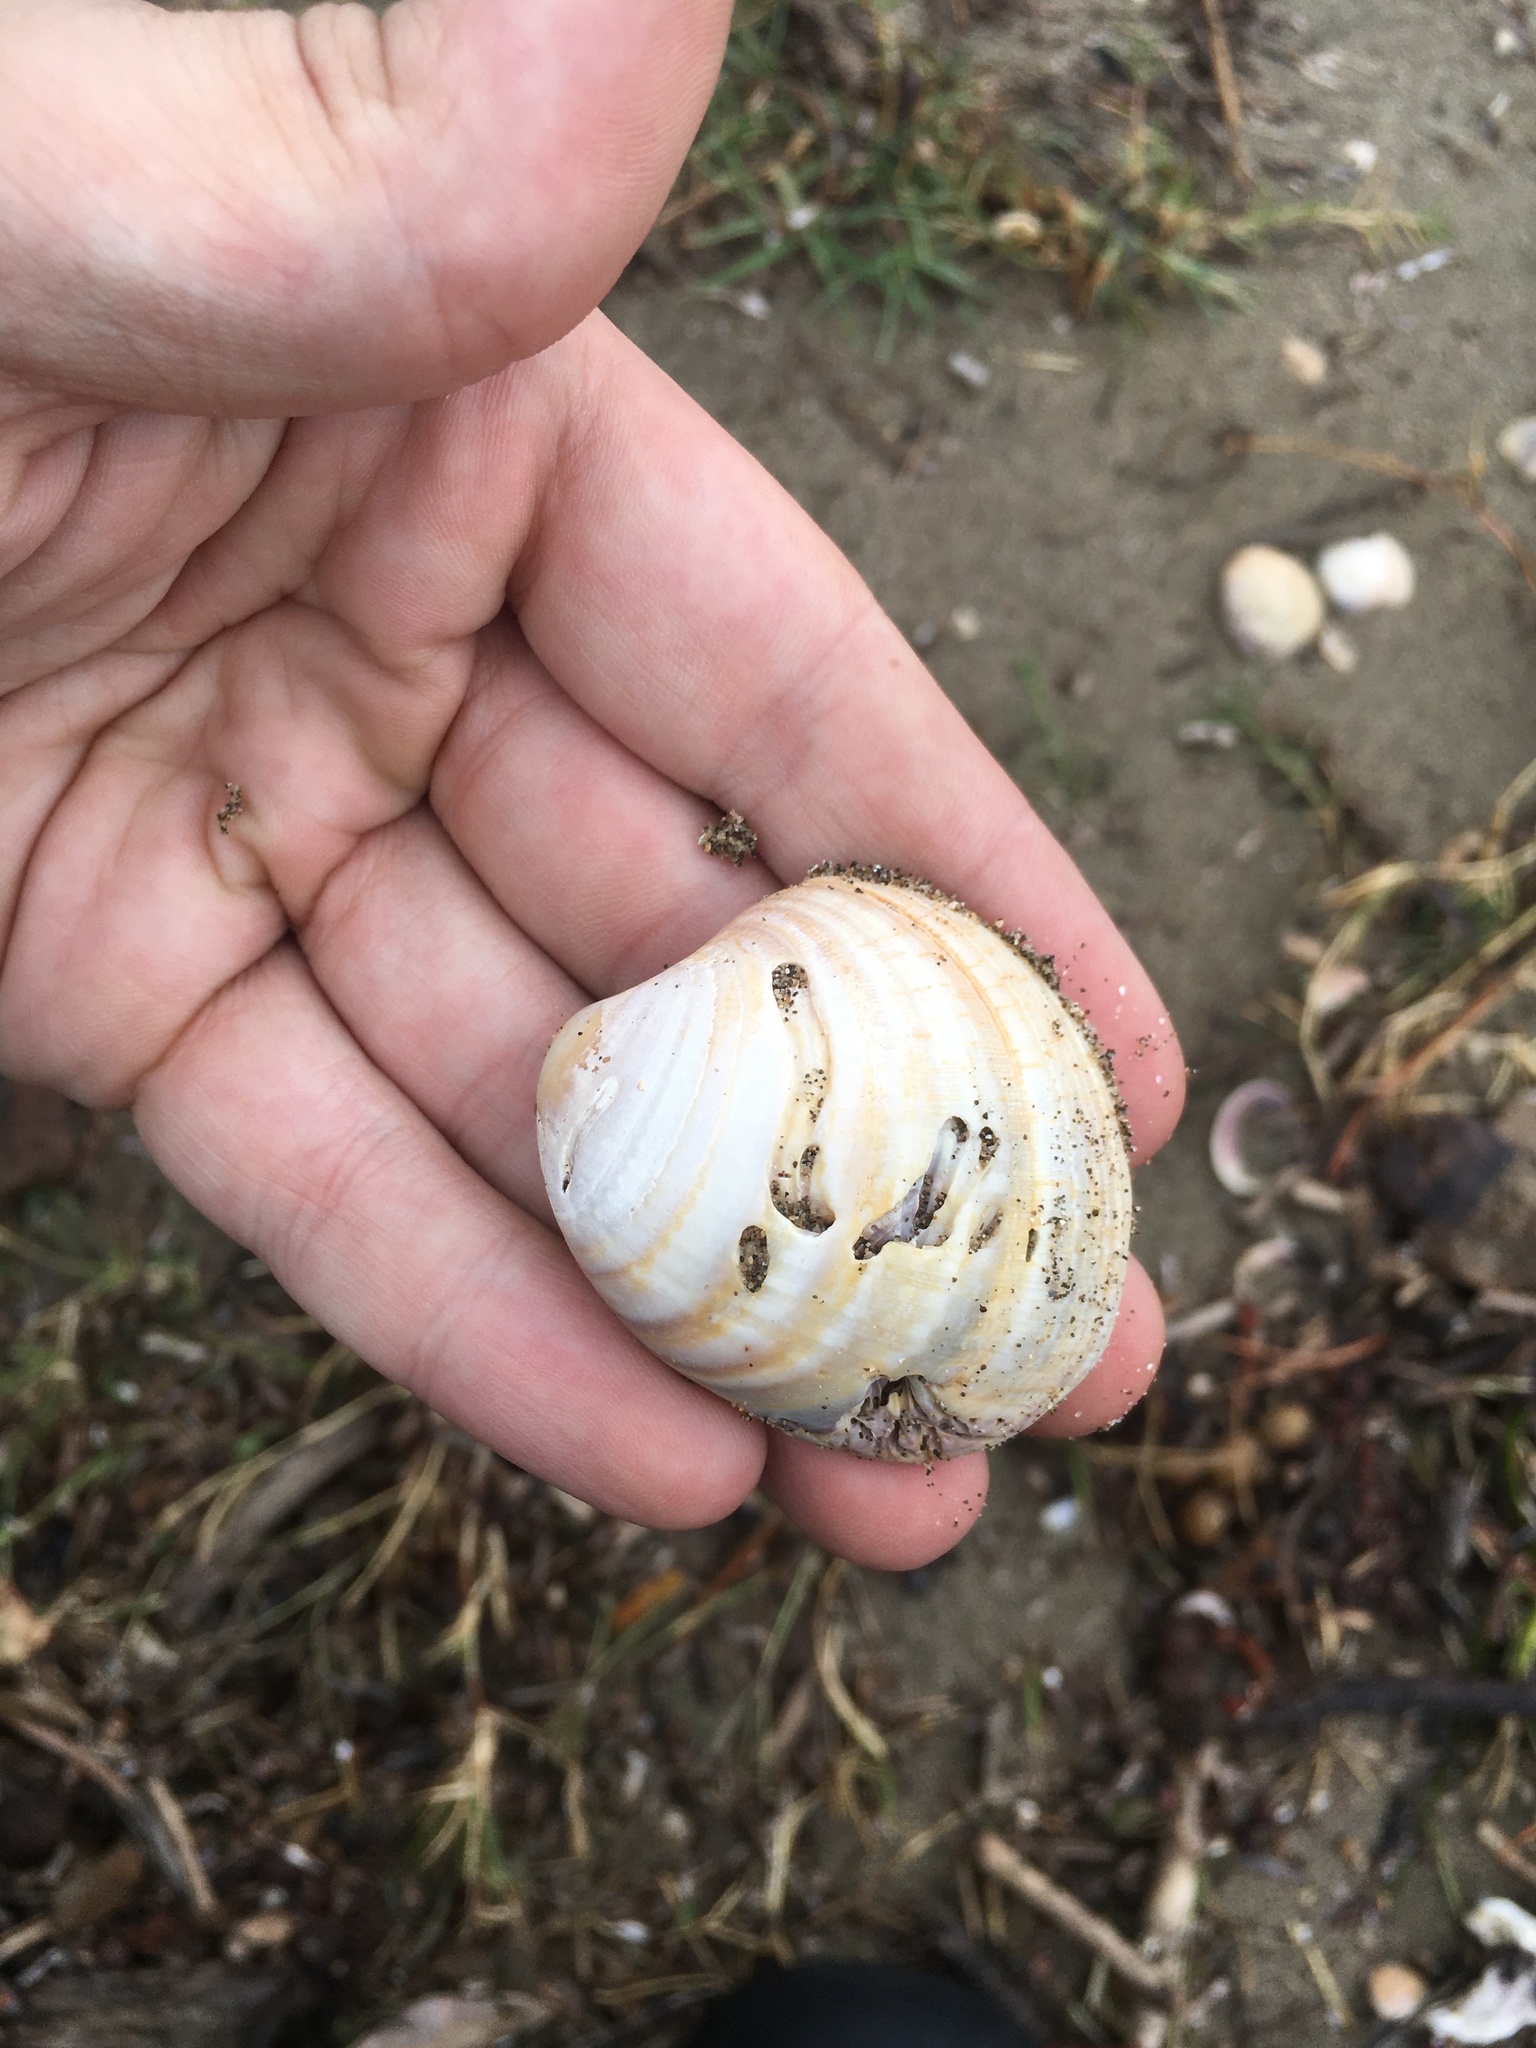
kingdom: Animalia
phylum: Mollusca
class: Bivalvia
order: Venerida
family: Veneridae
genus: Austrovenus
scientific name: Austrovenus stutchburyi
